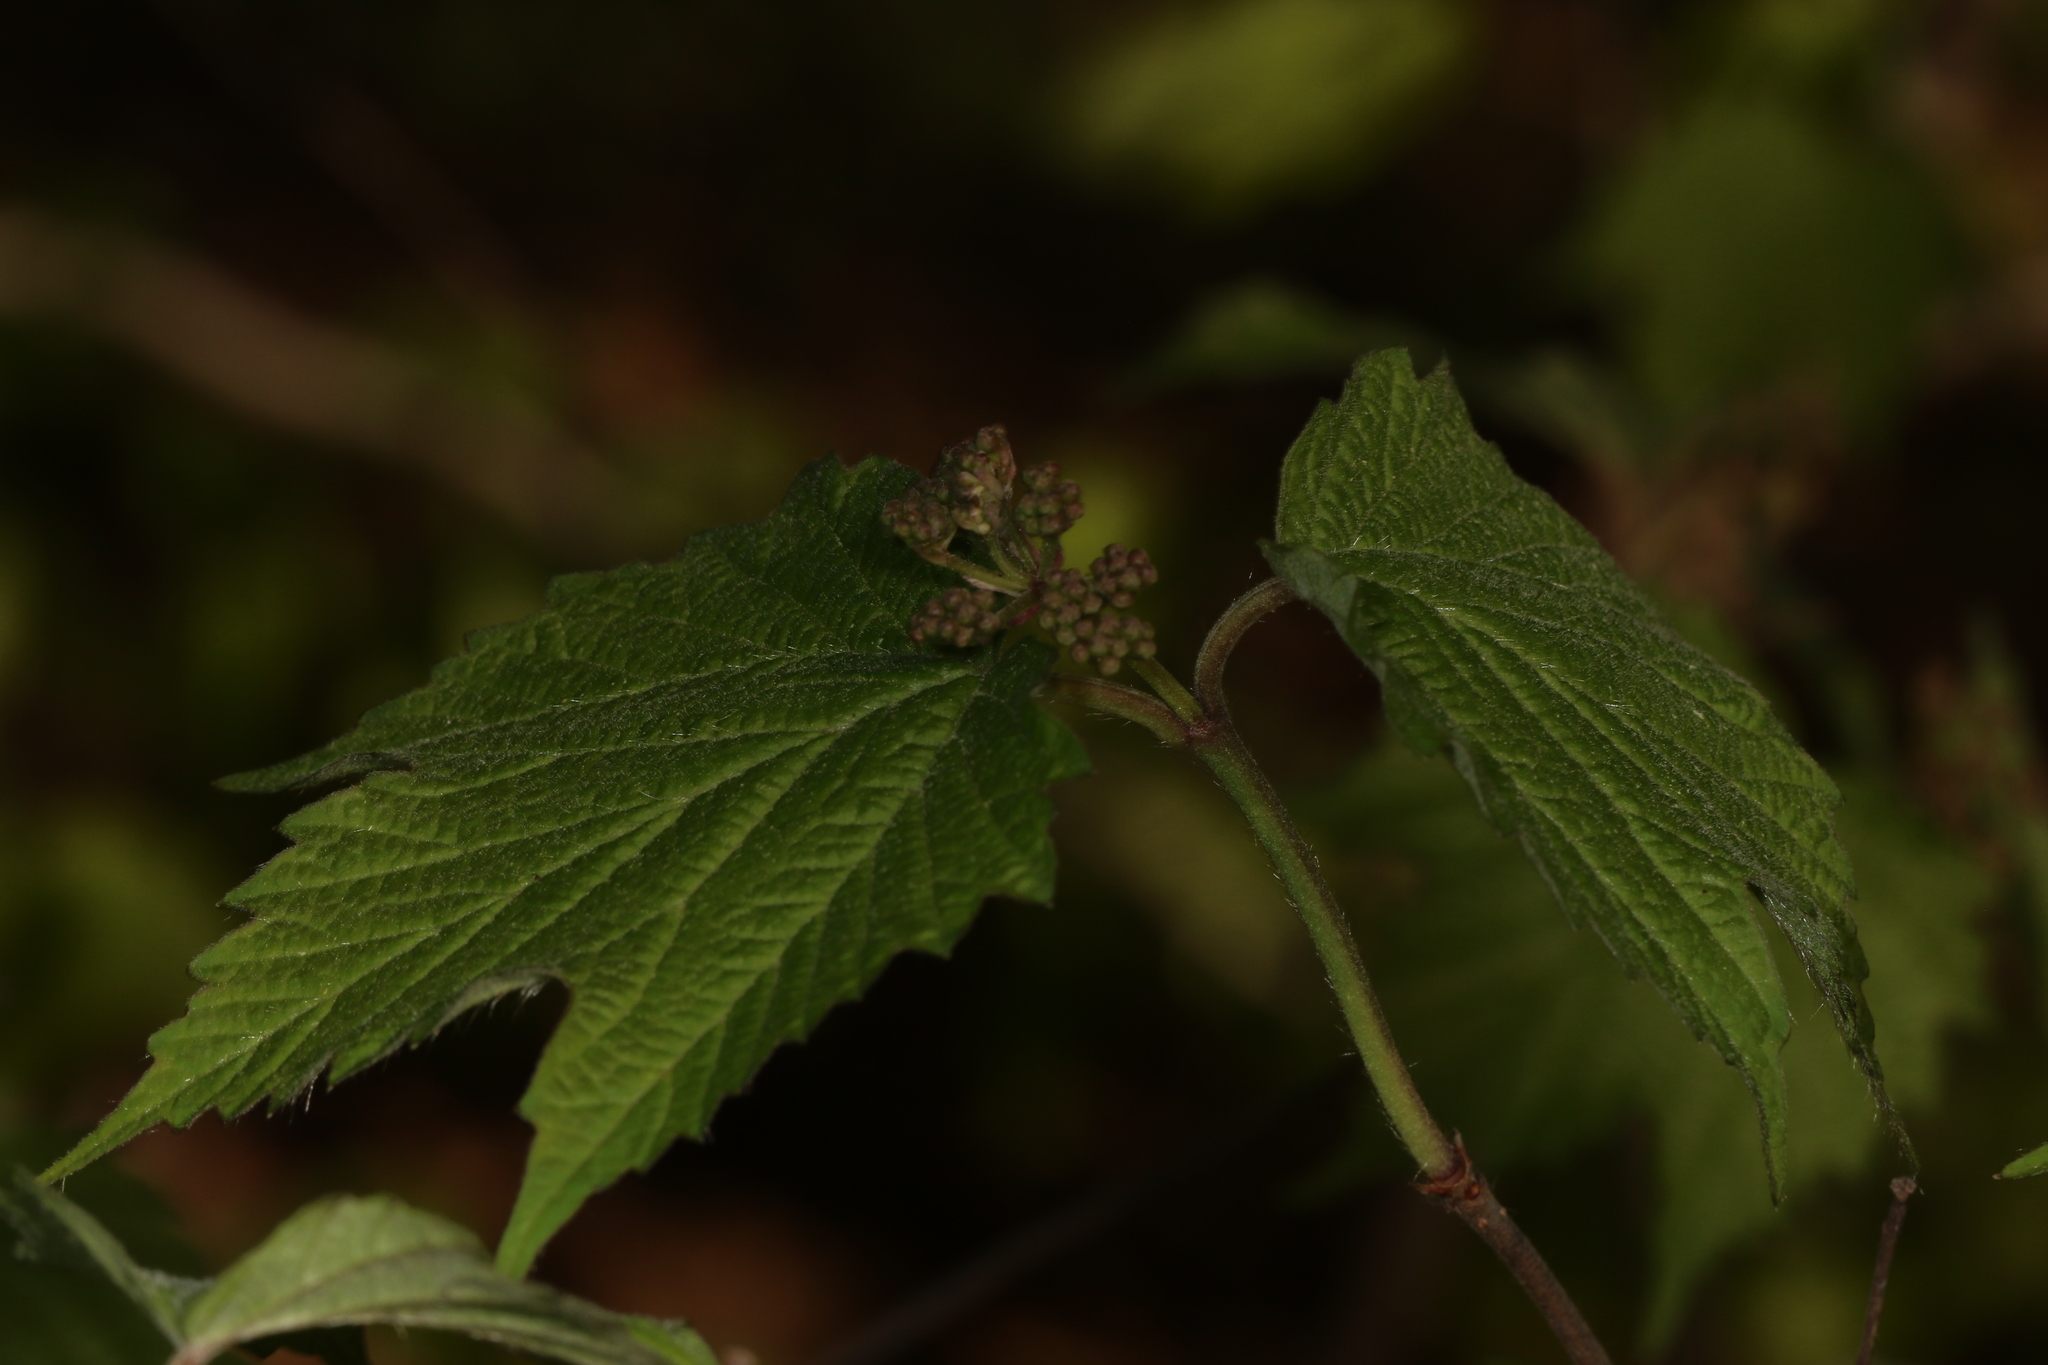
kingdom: Plantae
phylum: Tracheophyta
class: Magnoliopsida
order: Dipsacales
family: Viburnaceae
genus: Viburnum
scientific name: Viburnum acerifolium
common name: Dockmackie
